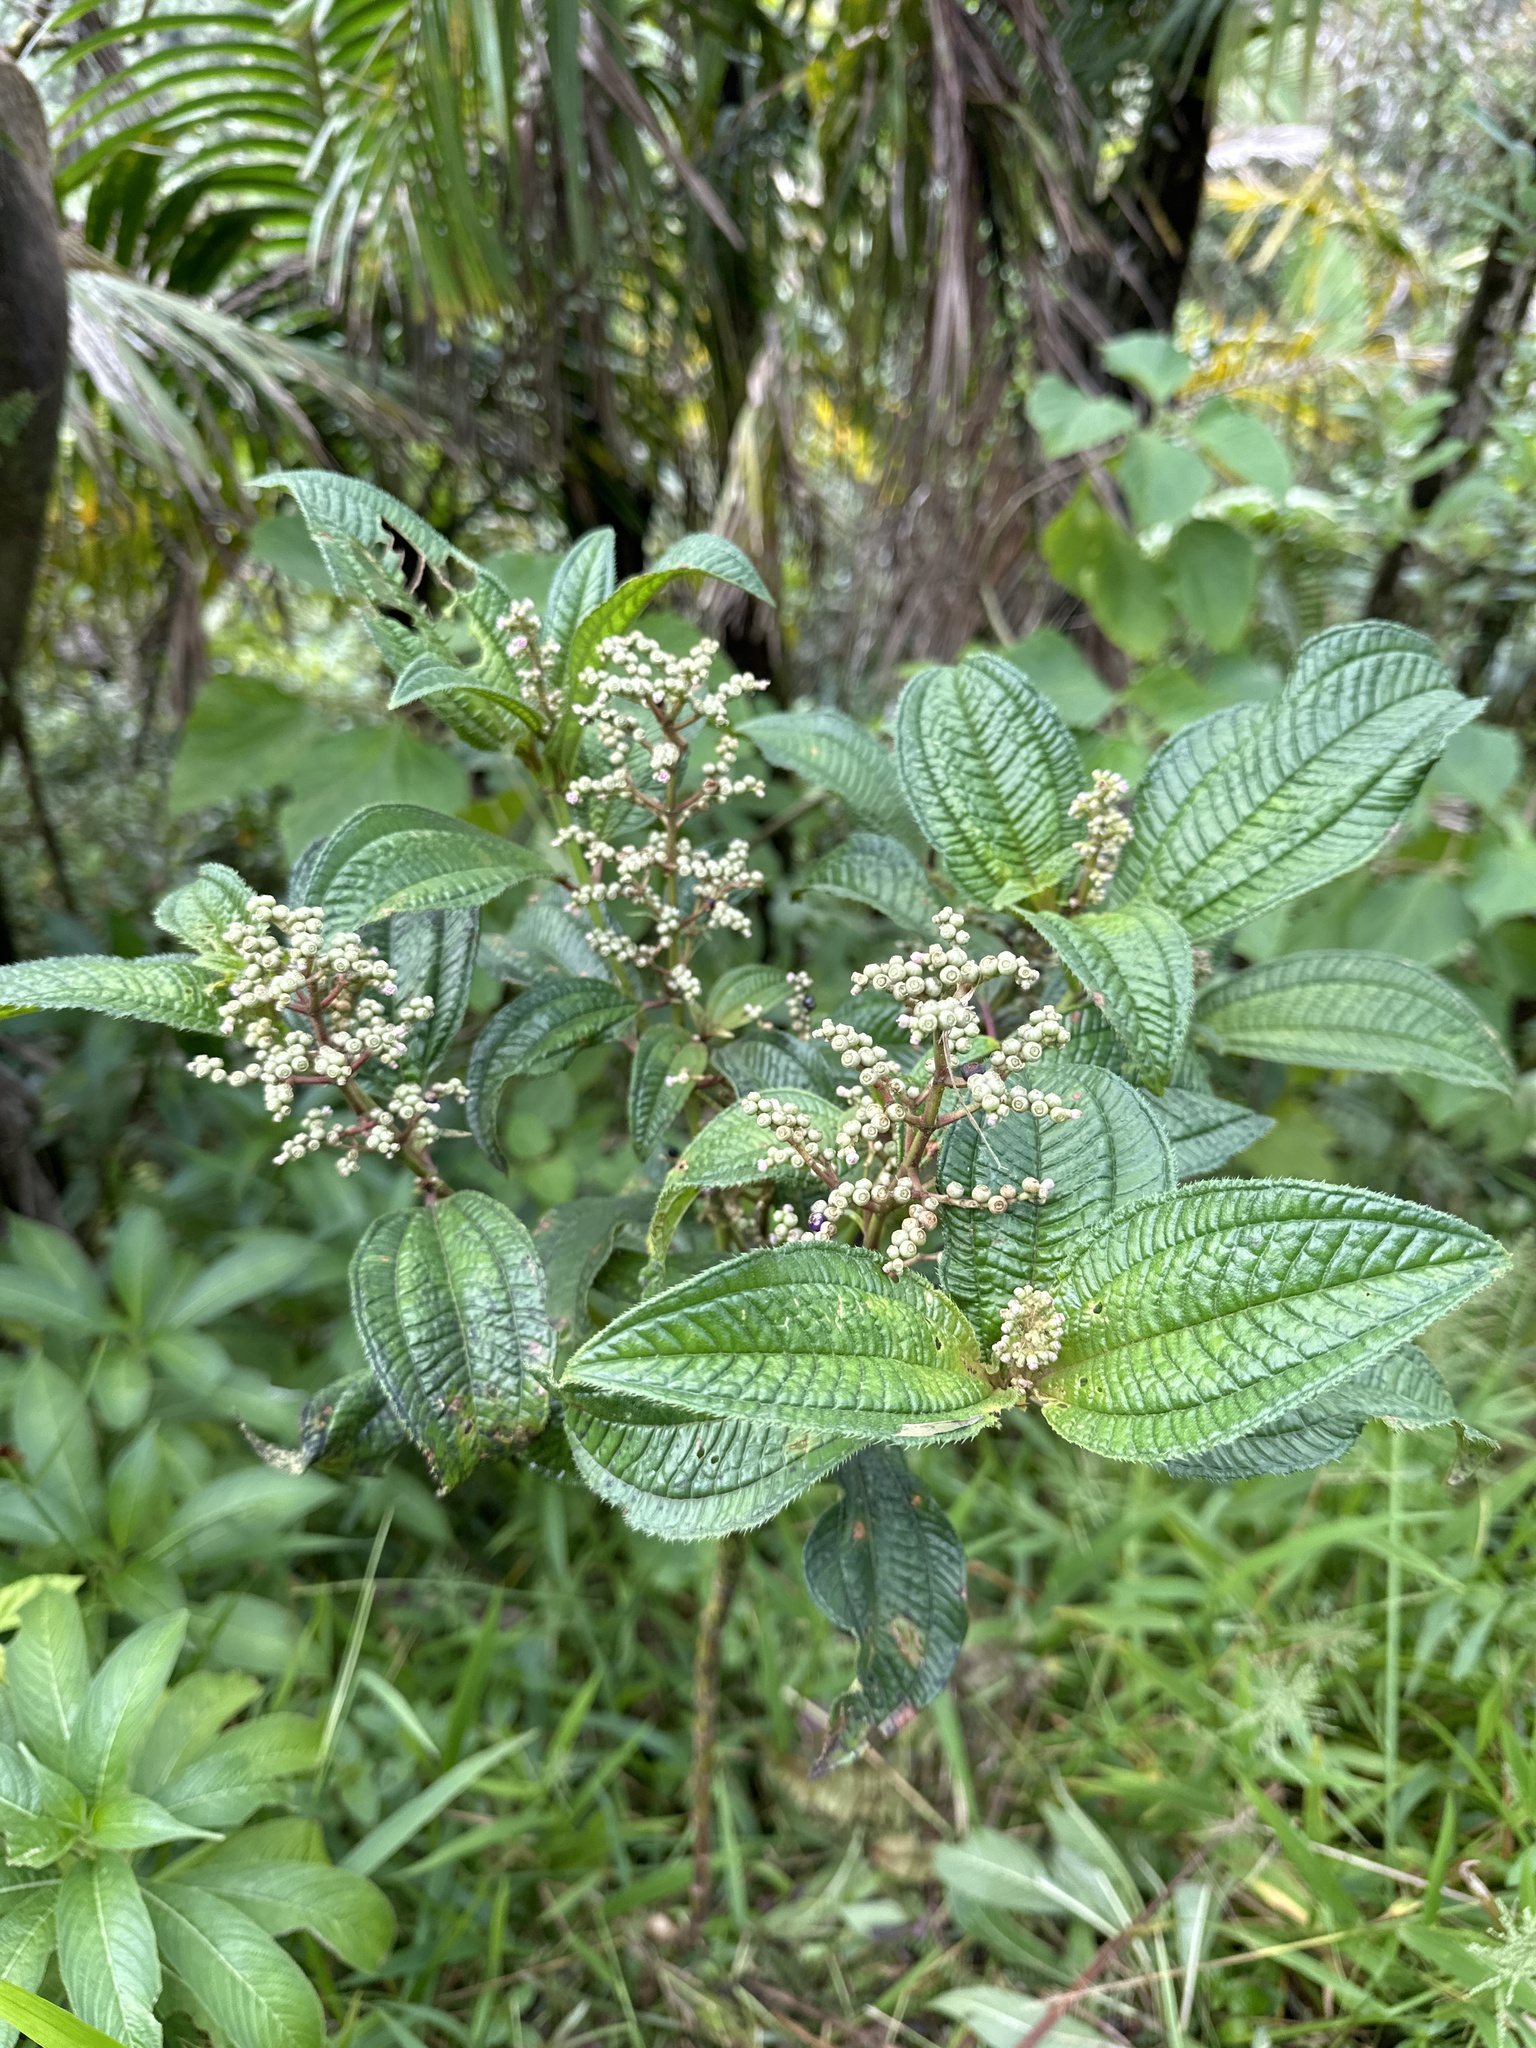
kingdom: Plantae
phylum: Tracheophyta
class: Magnoliopsida
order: Myrtales
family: Melastomataceae
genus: Miconia
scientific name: Miconia racemosa
